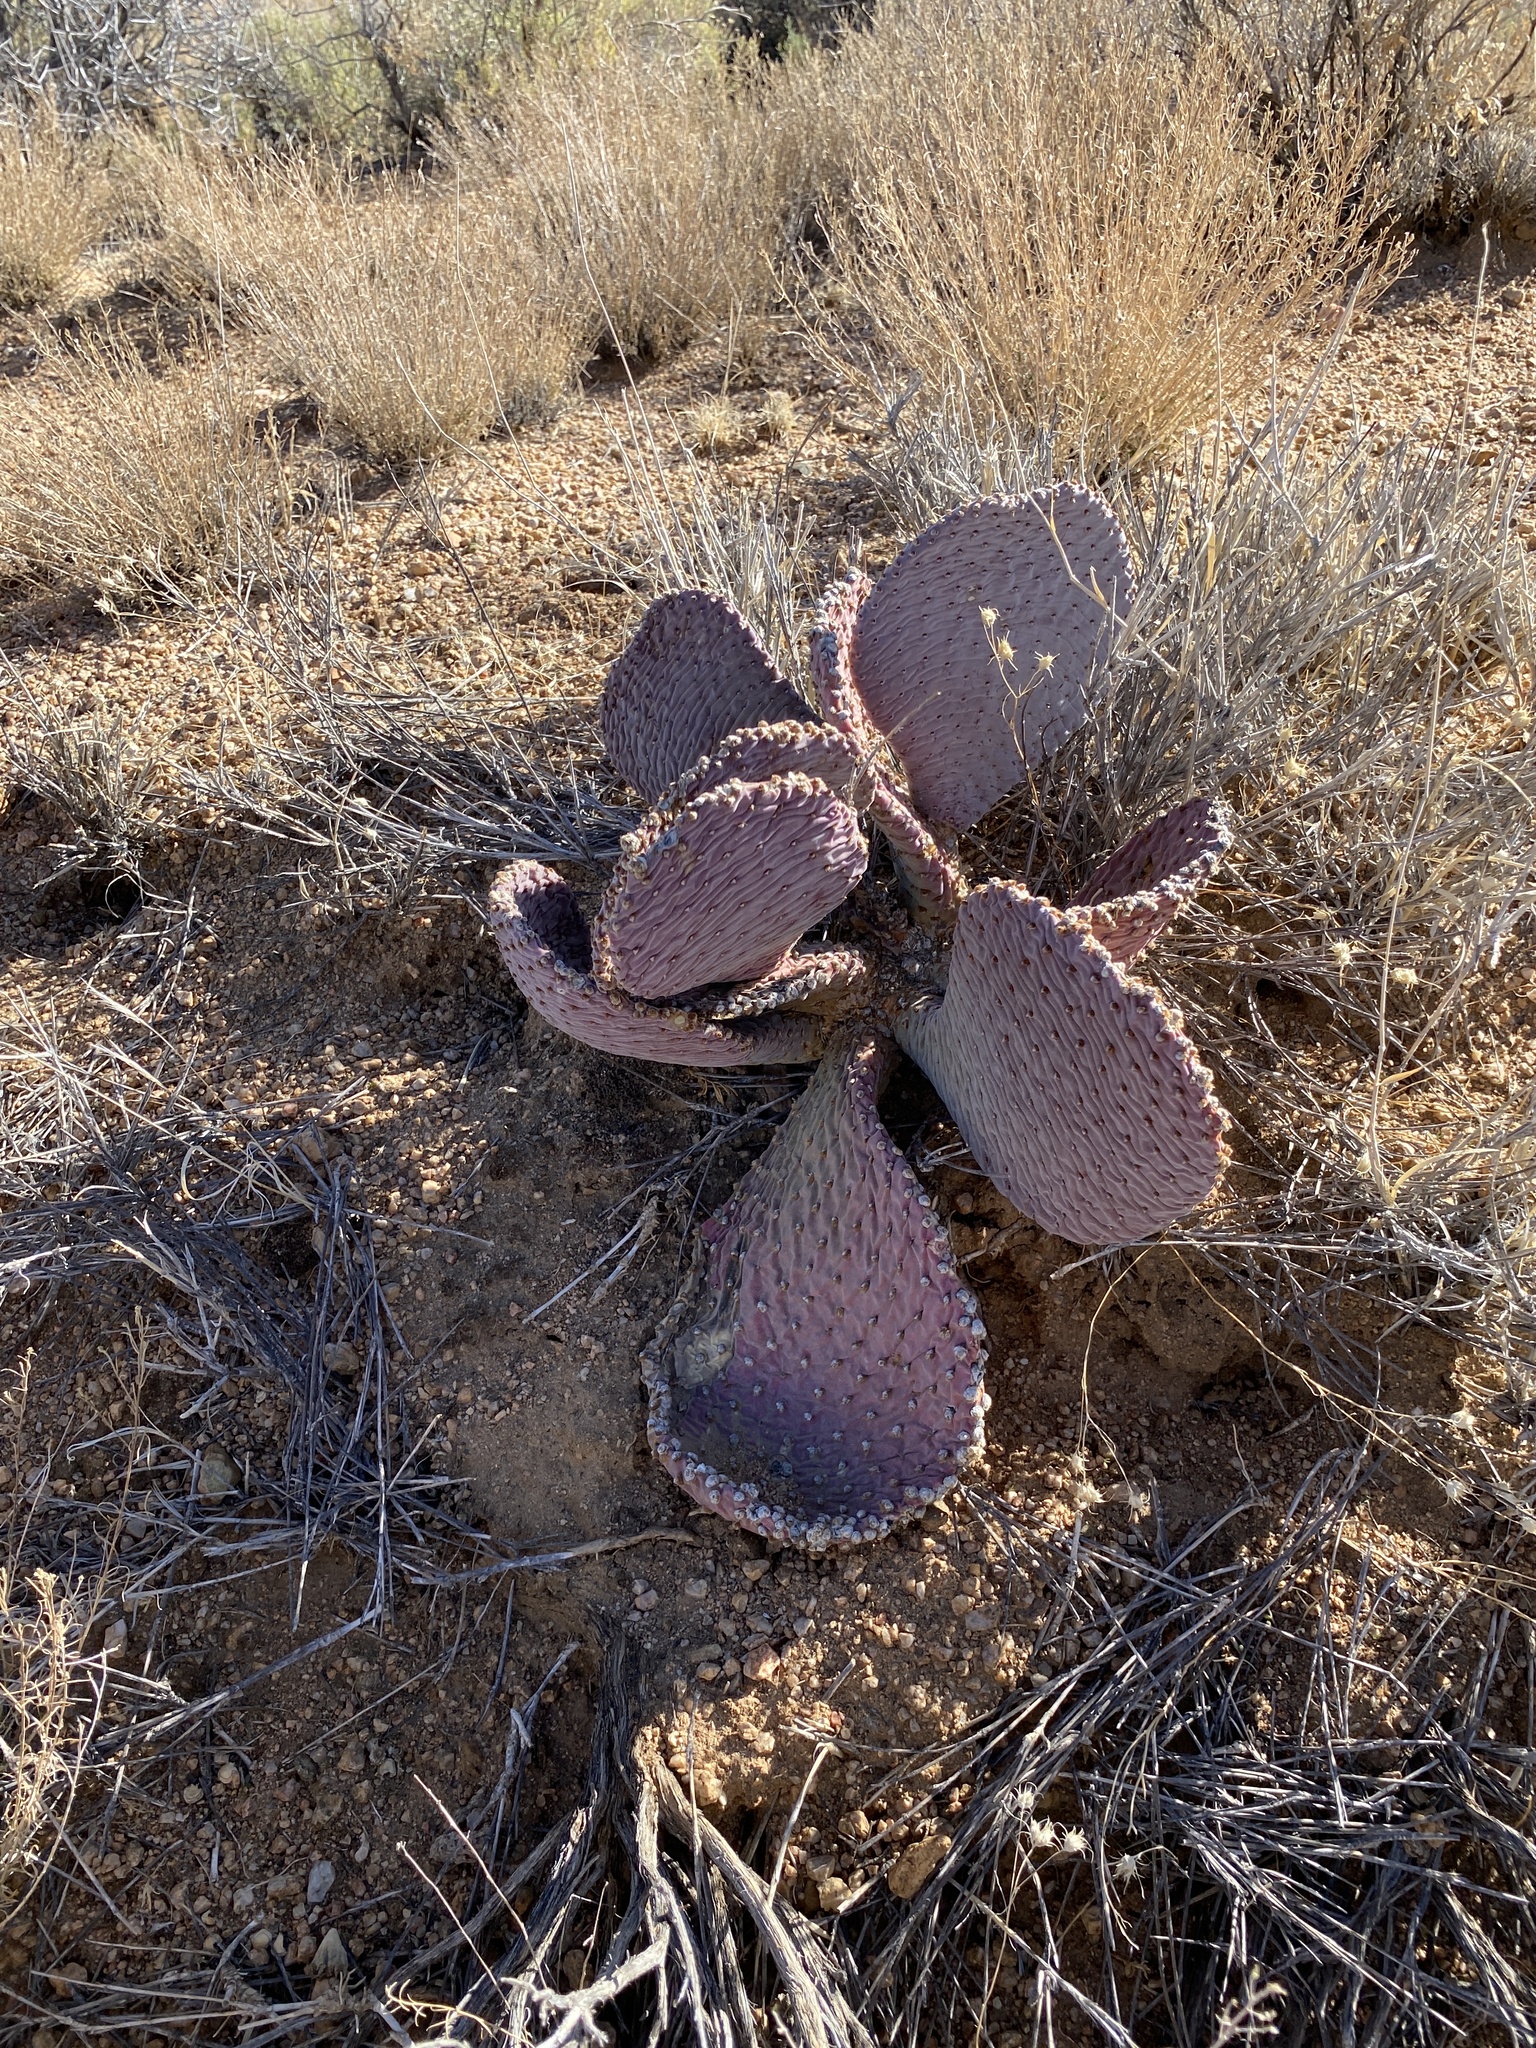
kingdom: Plantae
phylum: Tracheophyta
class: Magnoliopsida
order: Caryophyllales
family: Cactaceae
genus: Opuntia
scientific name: Opuntia basilaris
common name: Beavertail prickly-pear
